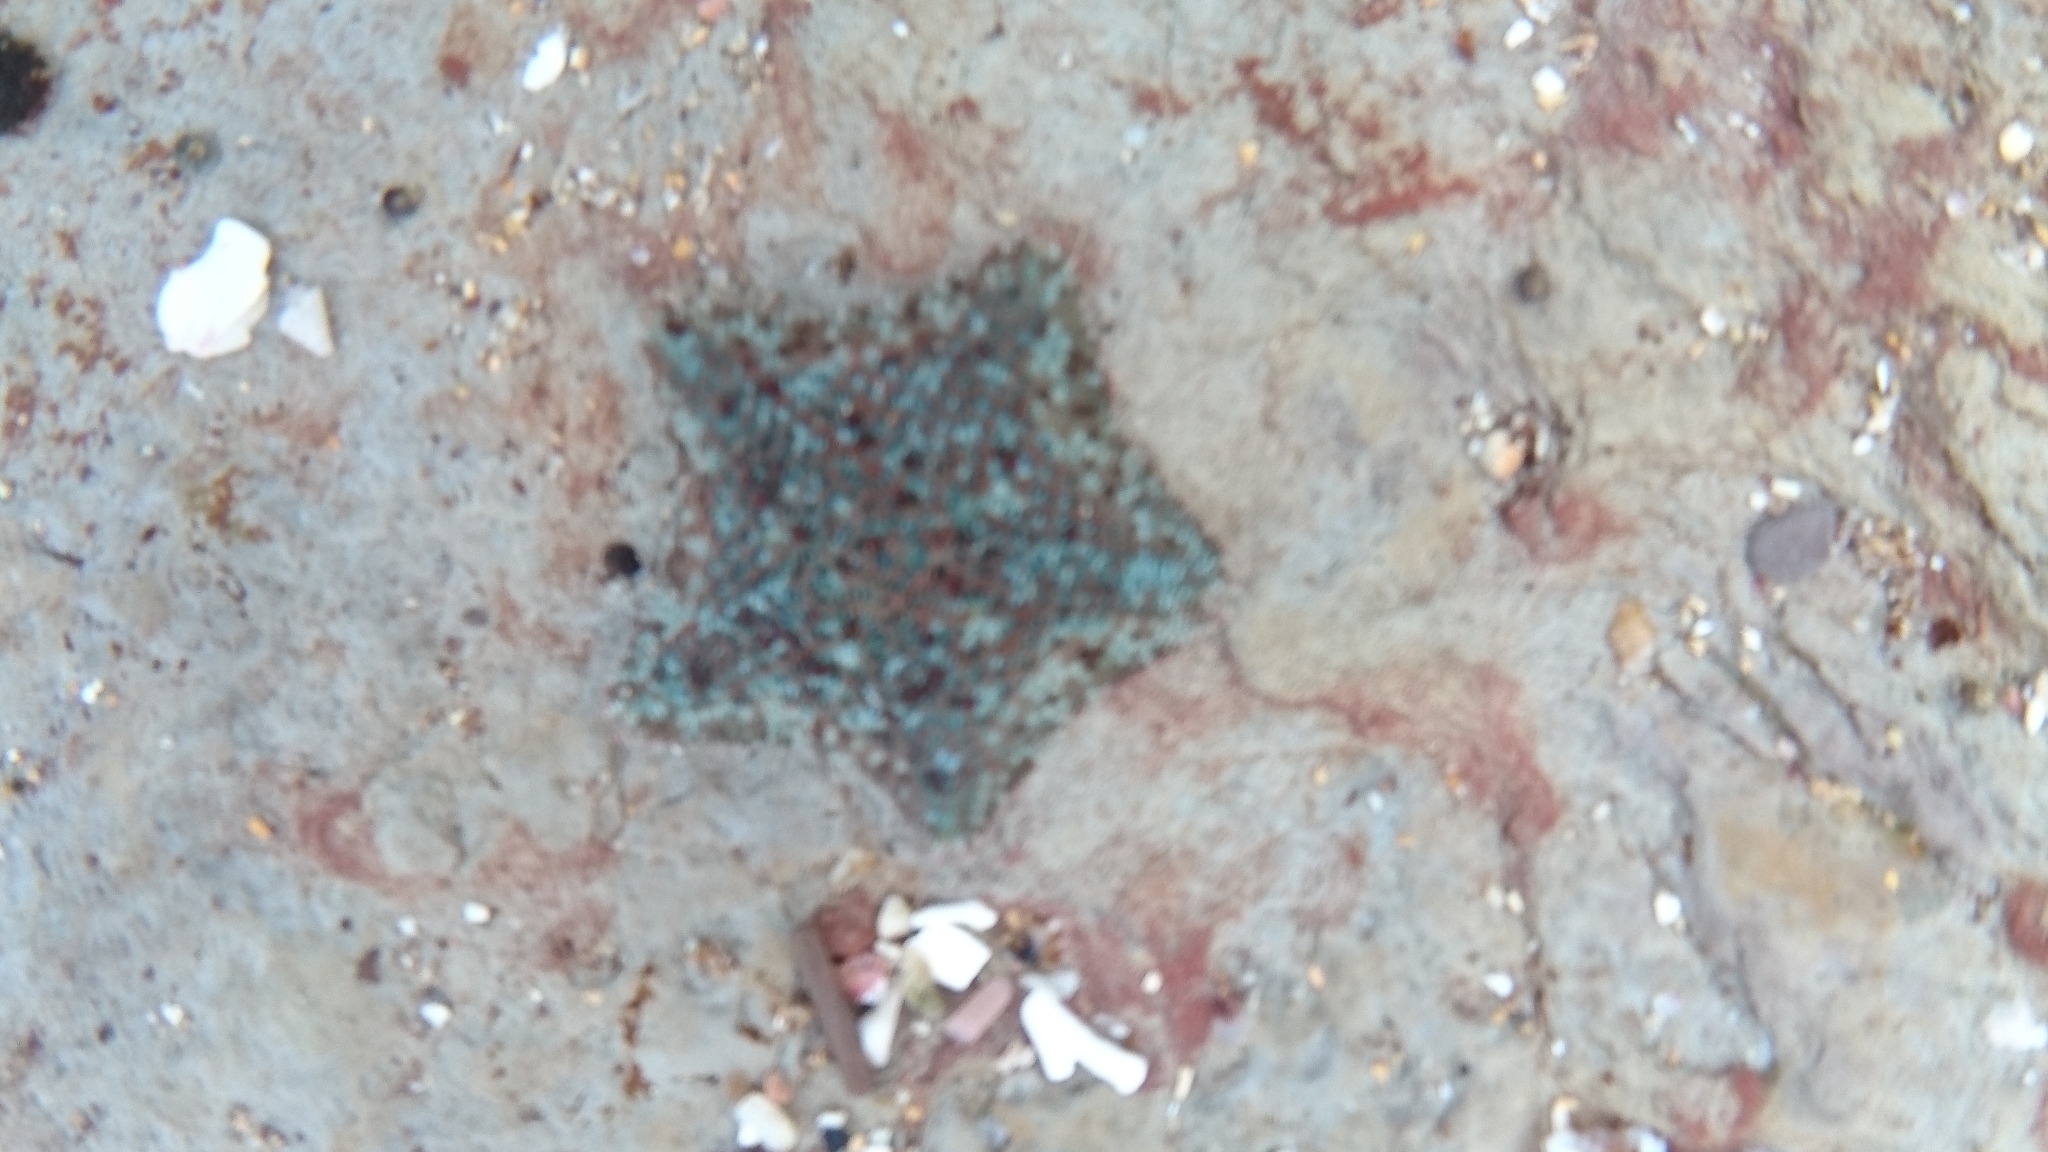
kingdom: Animalia
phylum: Echinodermata
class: Asteroidea
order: Valvatida
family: Asterinidae
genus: Parvulastra
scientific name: Parvulastra exigua
